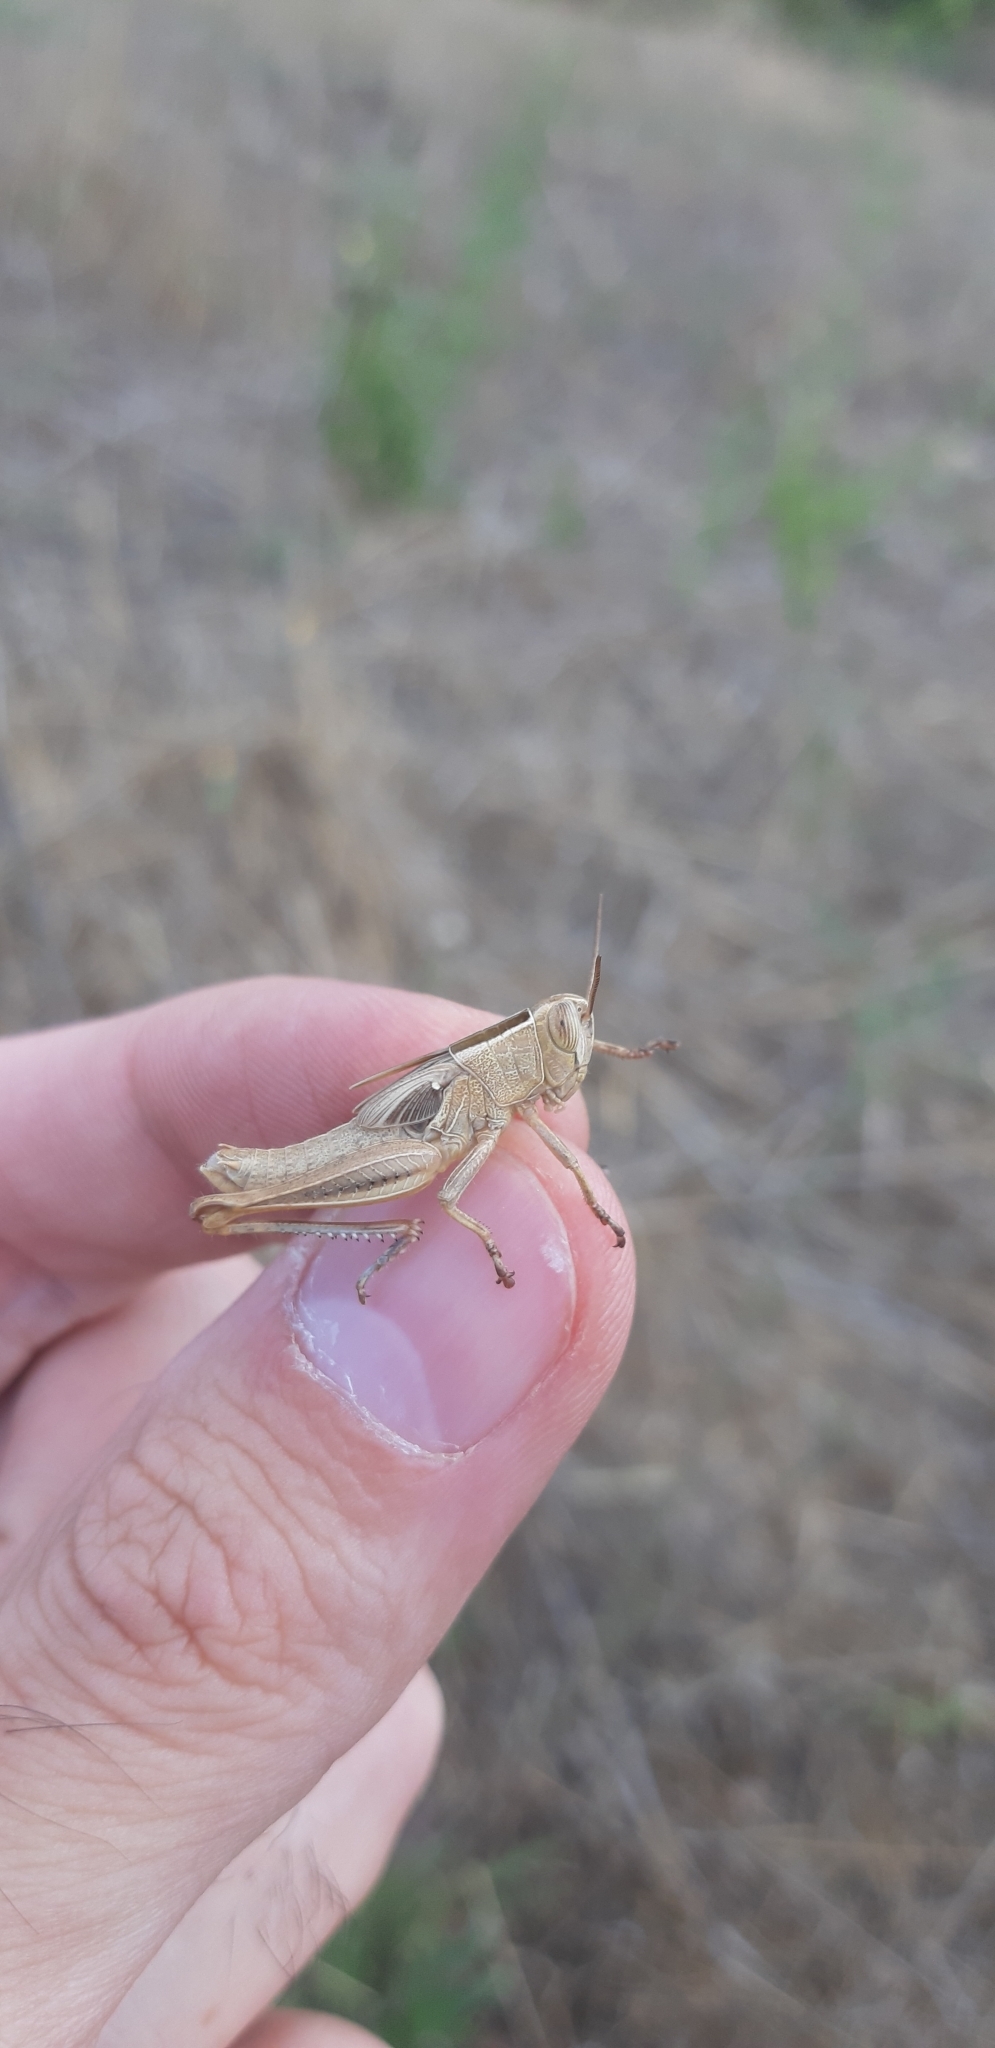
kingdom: Animalia
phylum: Arthropoda
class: Insecta
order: Orthoptera
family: Acrididae
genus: Eyprepocnemis
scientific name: Eyprepocnemis plorans
